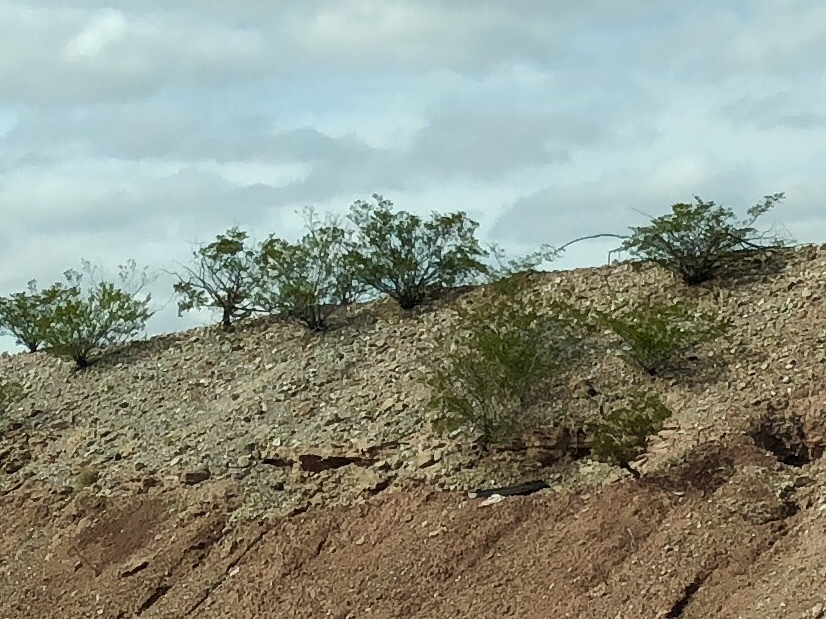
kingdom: Plantae
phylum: Tracheophyta
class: Magnoliopsida
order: Zygophyllales
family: Zygophyllaceae
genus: Larrea
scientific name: Larrea tridentata
